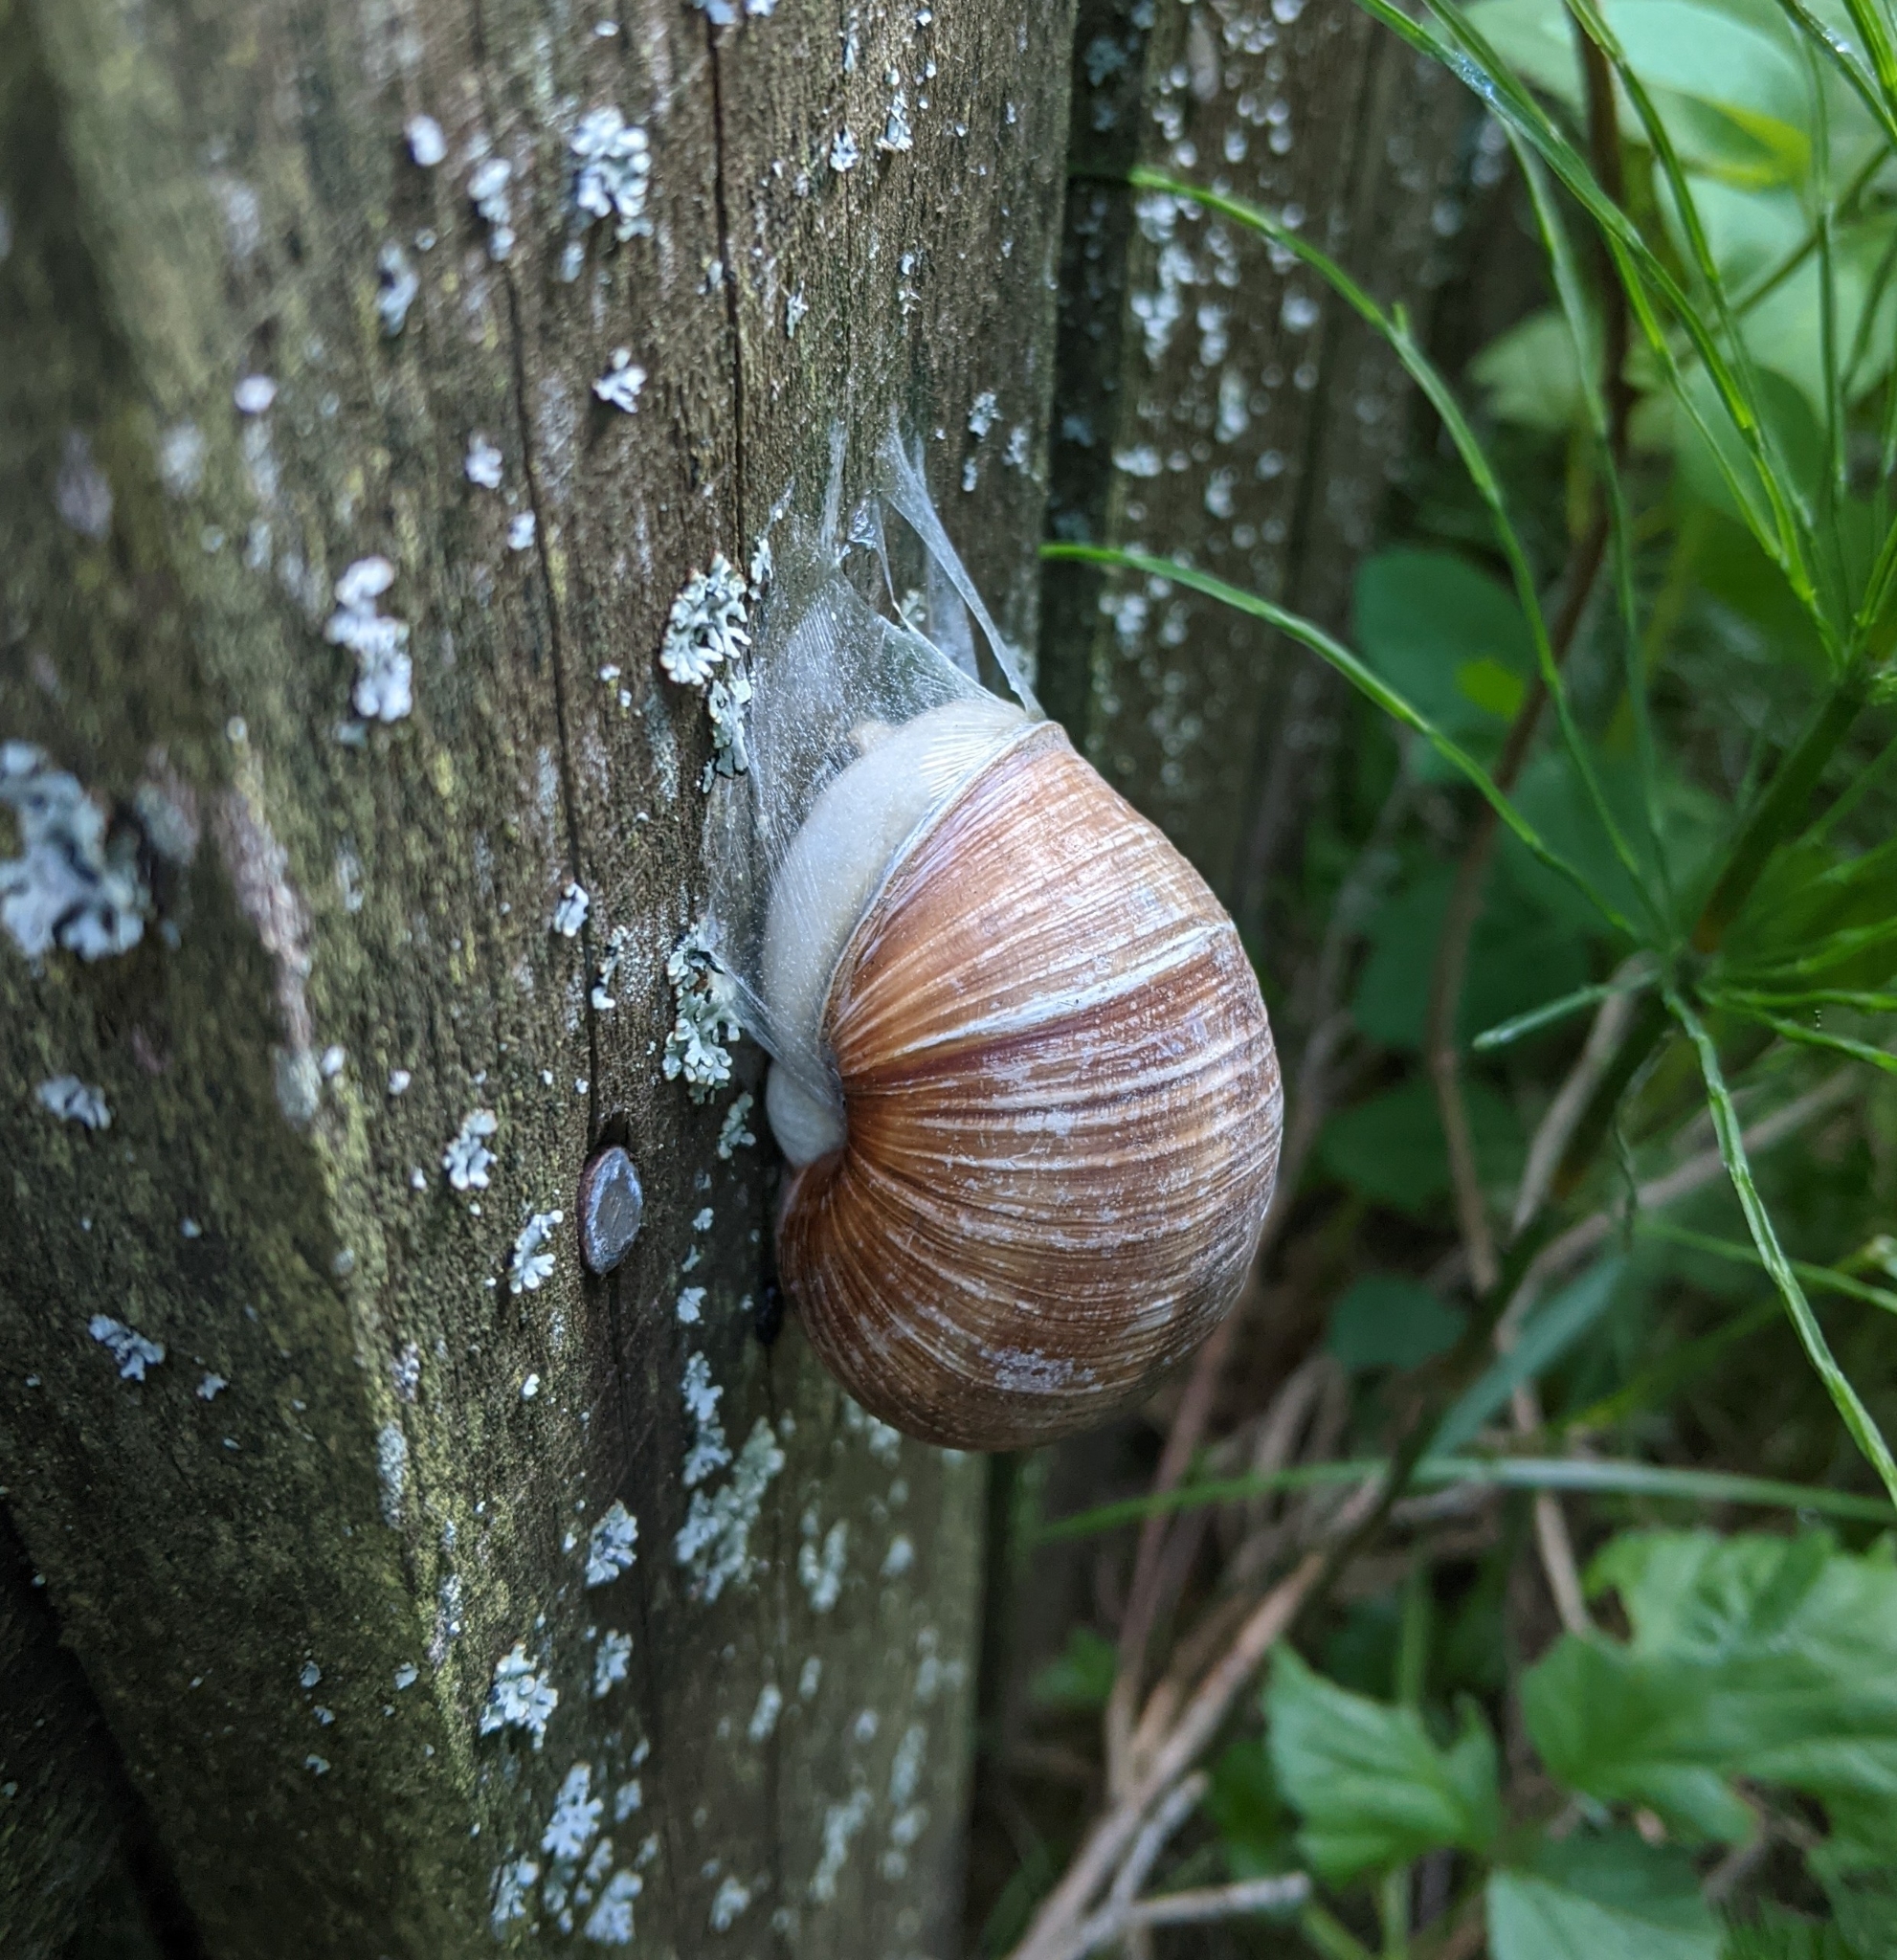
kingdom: Animalia
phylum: Mollusca
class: Gastropoda
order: Stylommatophora
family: Helicidae
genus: Helix
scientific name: Helix pomatia
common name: Roman snail
